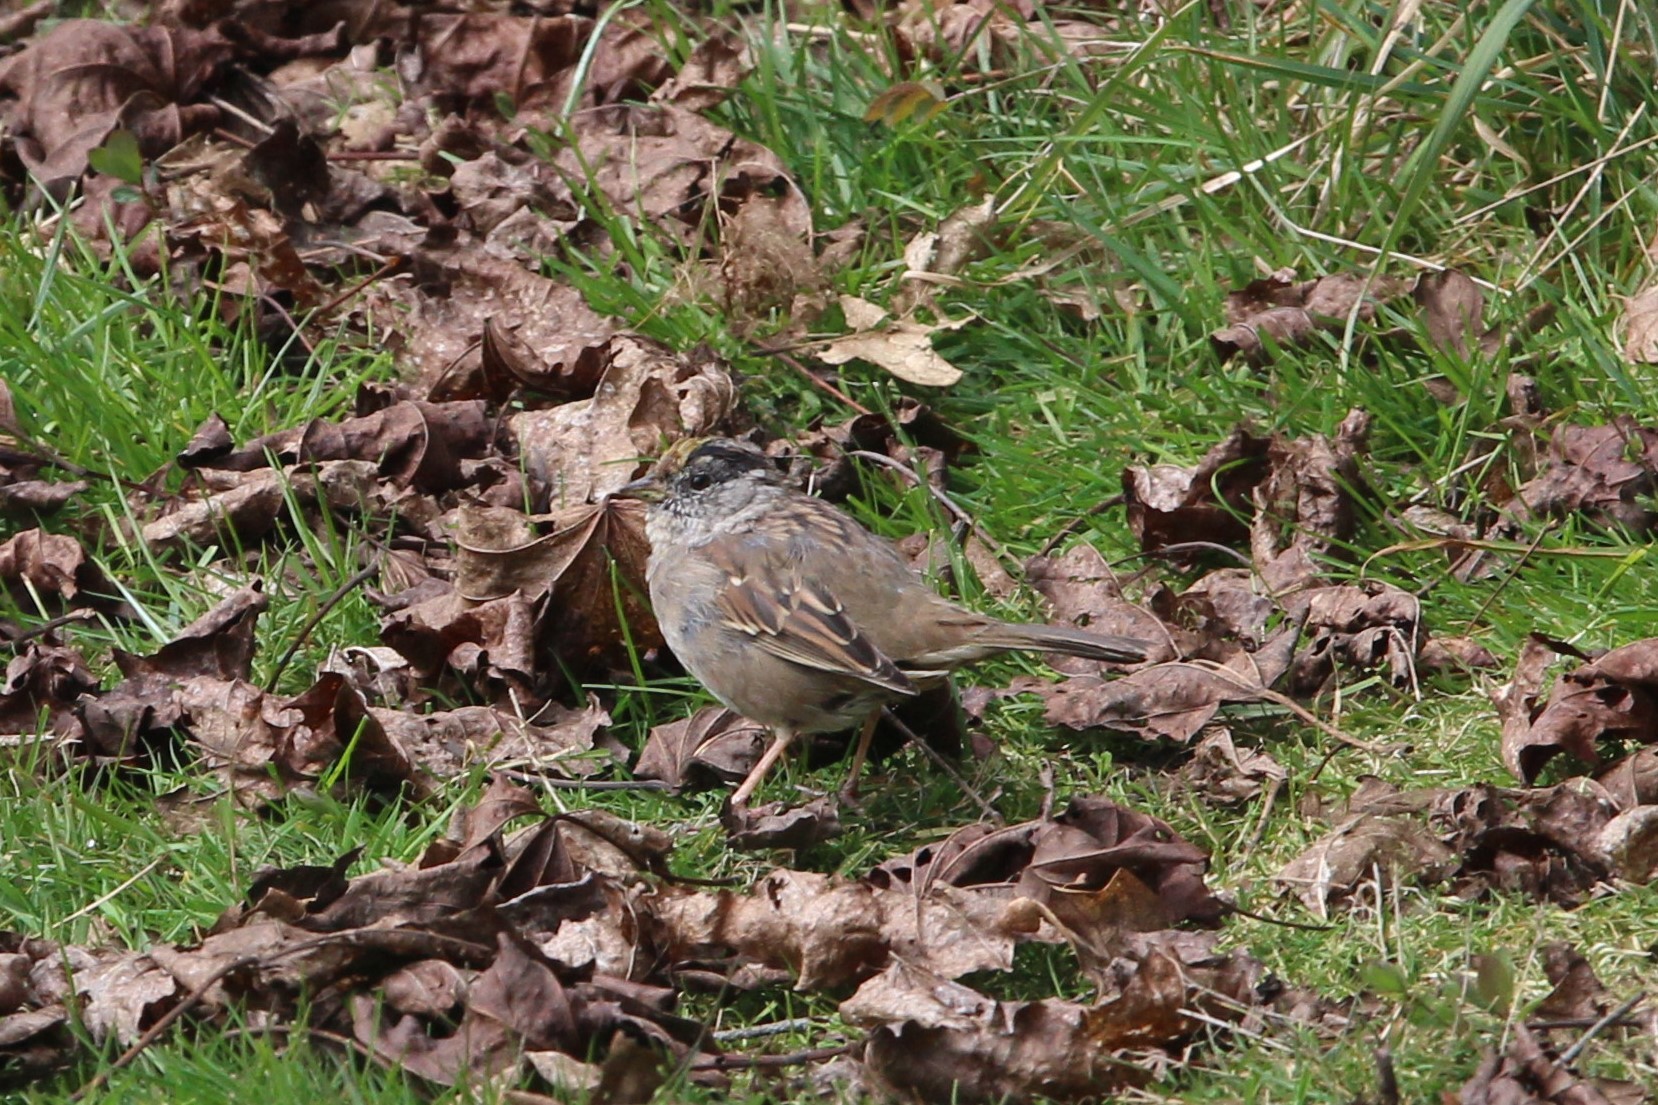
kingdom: Animalia
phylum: Chordata
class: Aves
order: Passeriformes
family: Passerellidae
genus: Zonotrichia
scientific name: Zonotrichia atricapilla
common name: Golden-crowned sparrow
